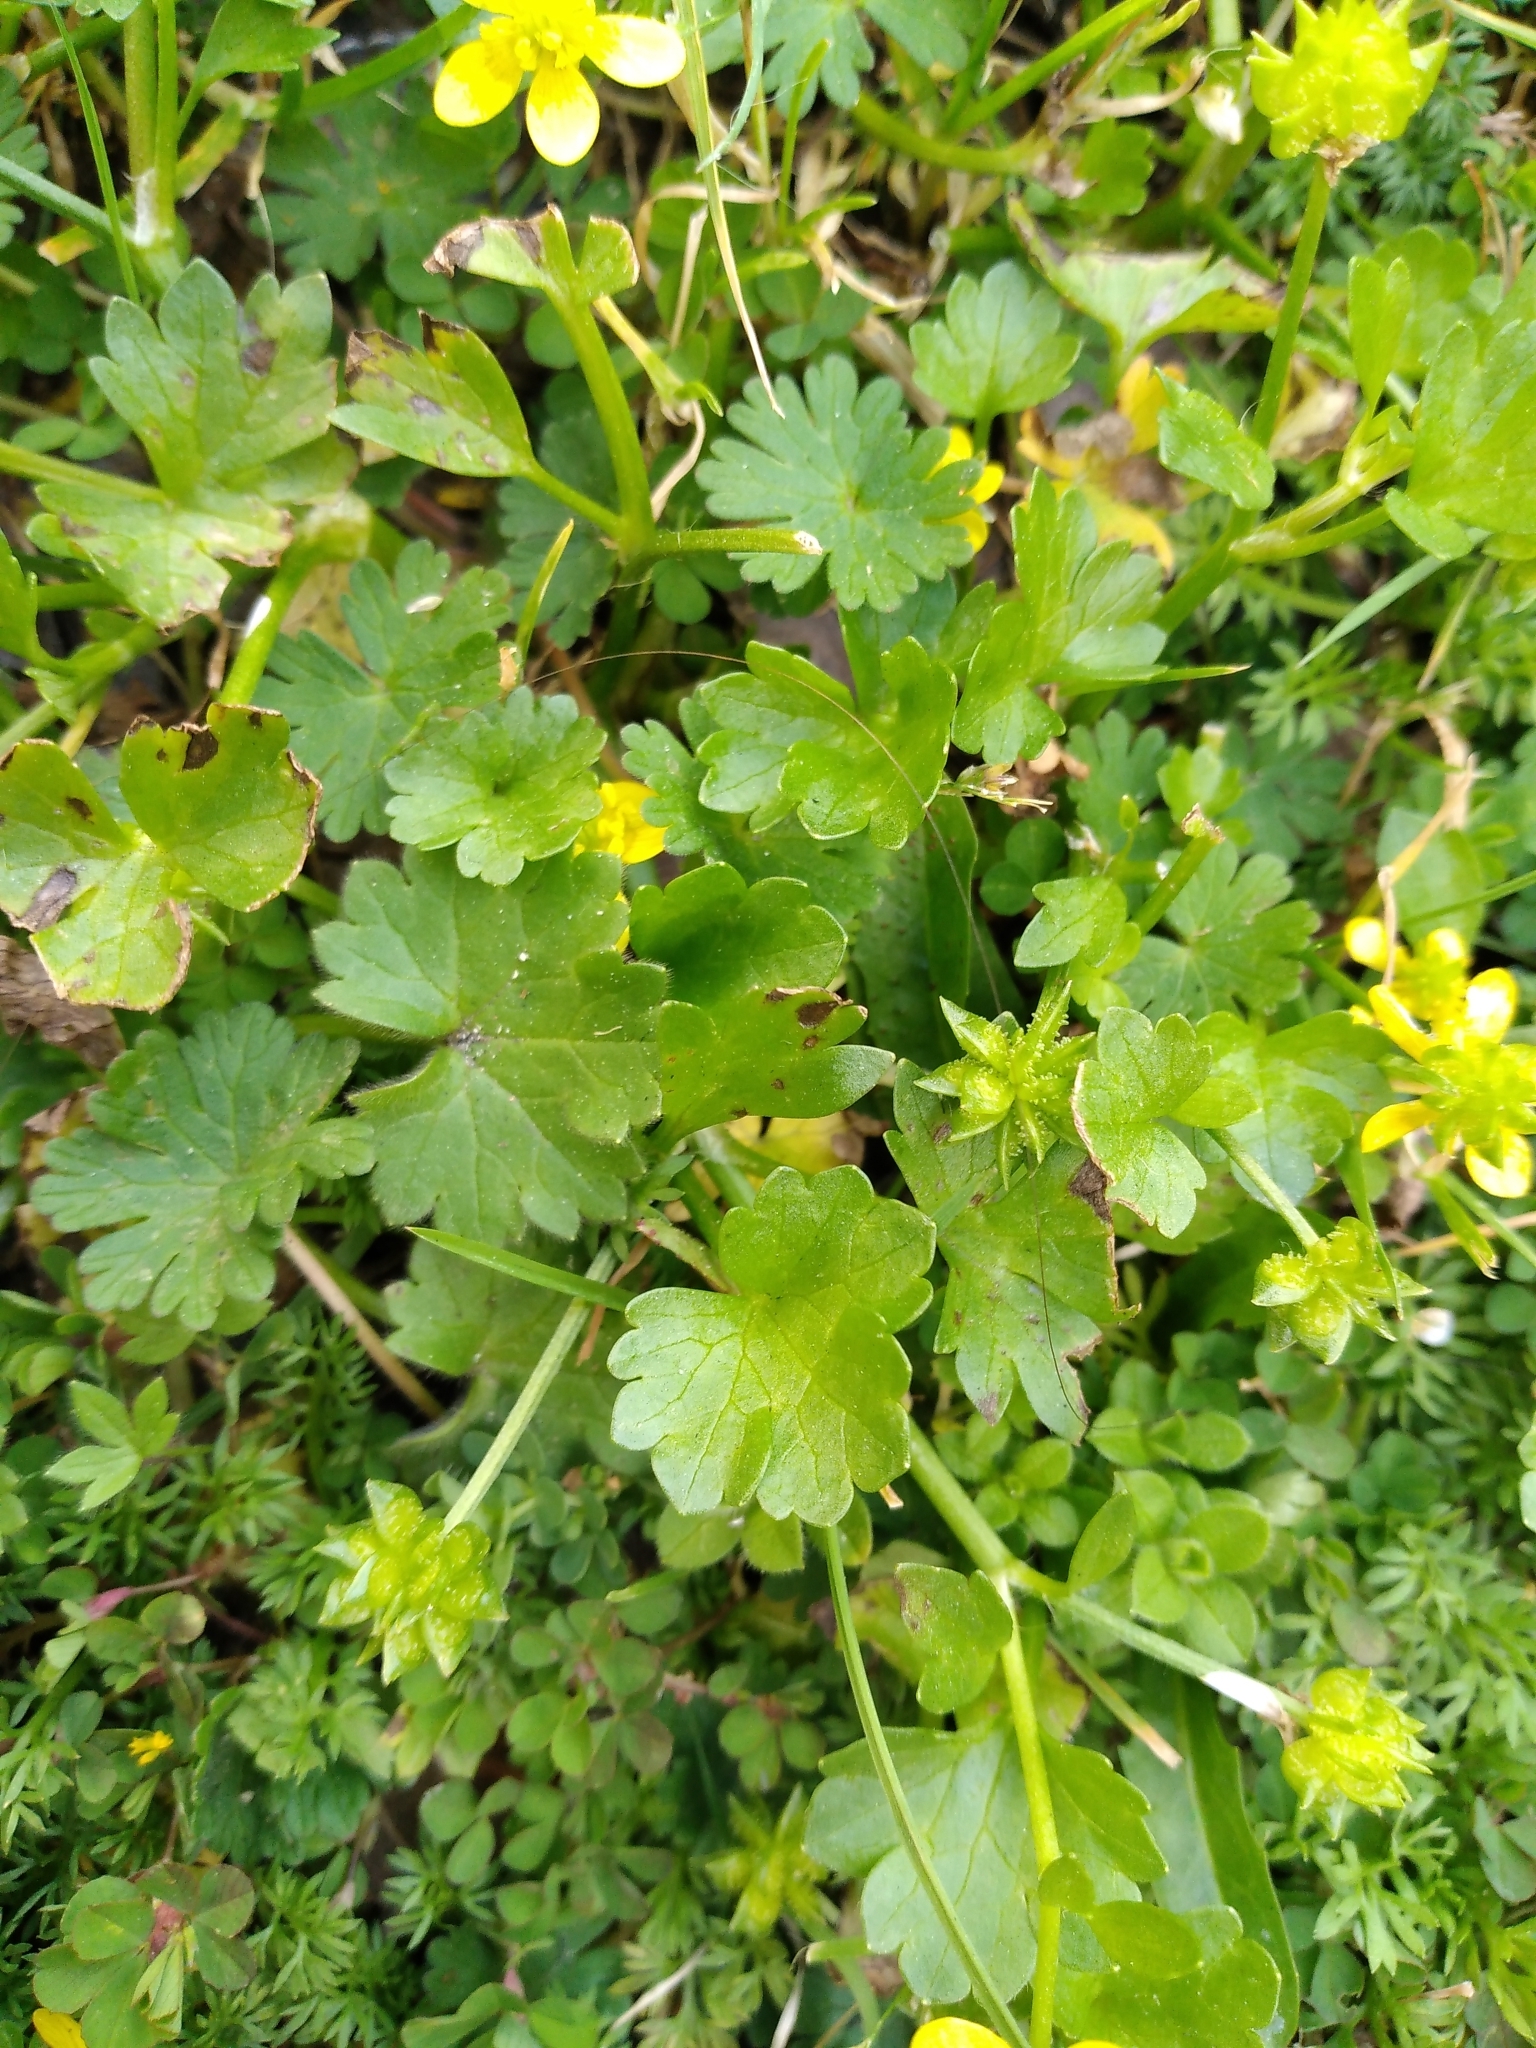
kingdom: Plantae
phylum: Tracheophyta
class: Magnoliopsida
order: Ranunculales
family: Ranunculaceae
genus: Ranunculus
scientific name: Ranunculus muricatus
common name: Rough-fruited buttercup
